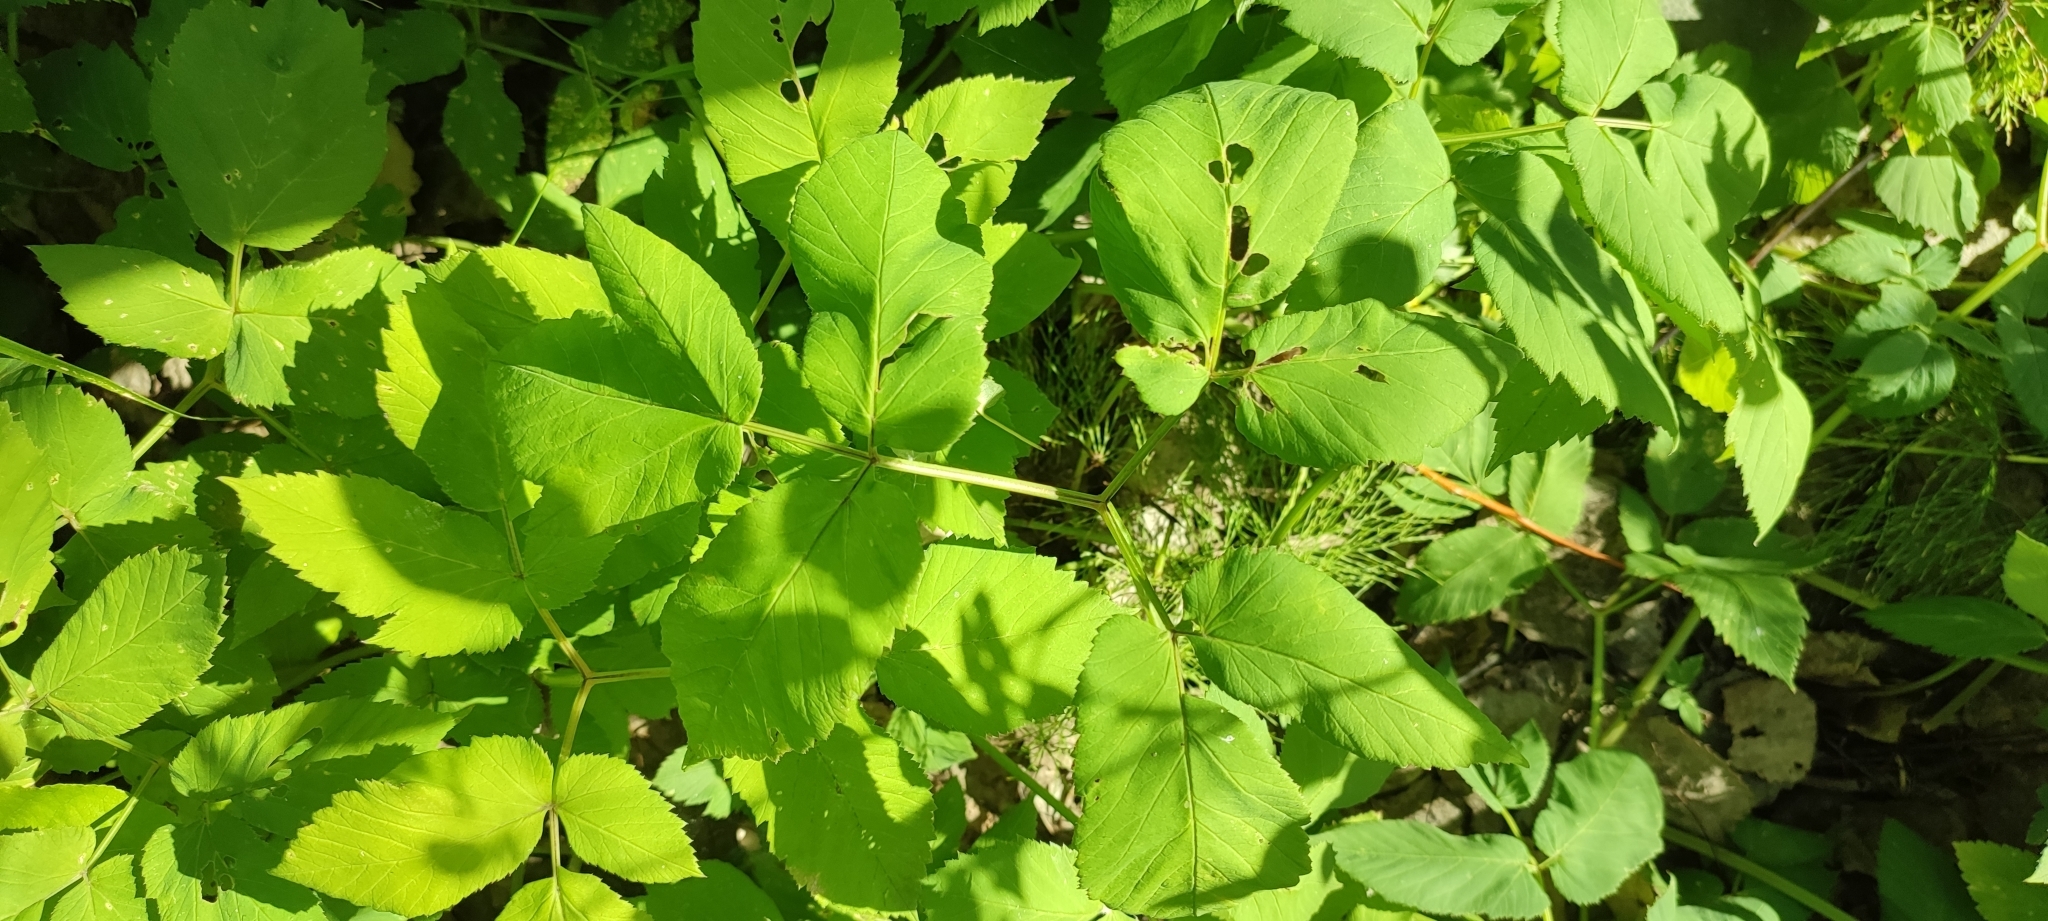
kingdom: Plantae
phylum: Tracheophyta
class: Magnoliopsida
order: Apiales
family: Apiaceae
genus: Aegopodium
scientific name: Aegopodium podagraria
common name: Ground-elder
